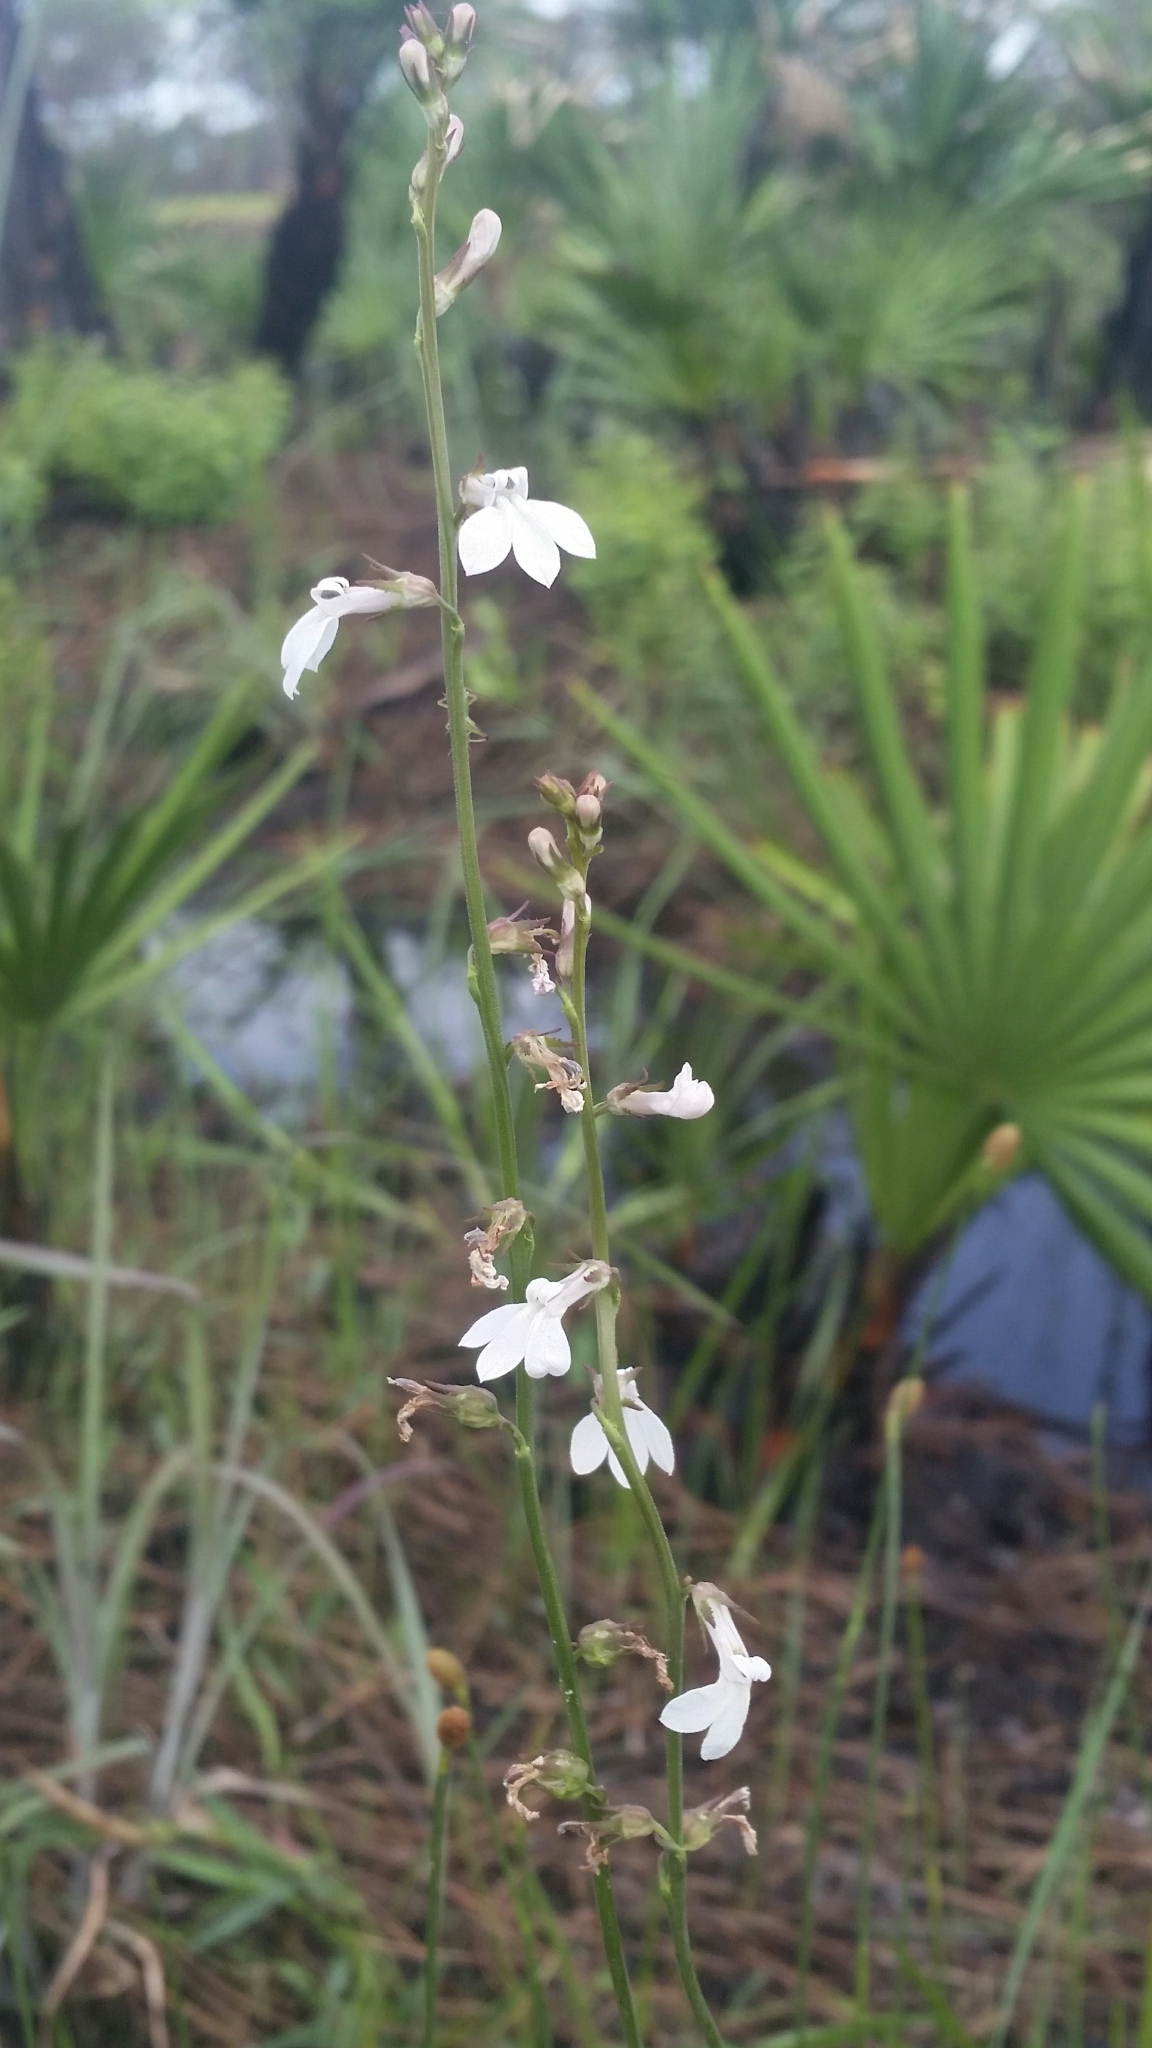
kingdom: Plantae
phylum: Tracheophyta
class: Magnoliopsida
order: Asterales
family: Campanulaceae
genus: Lobelia
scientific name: Lobelia paludosa
